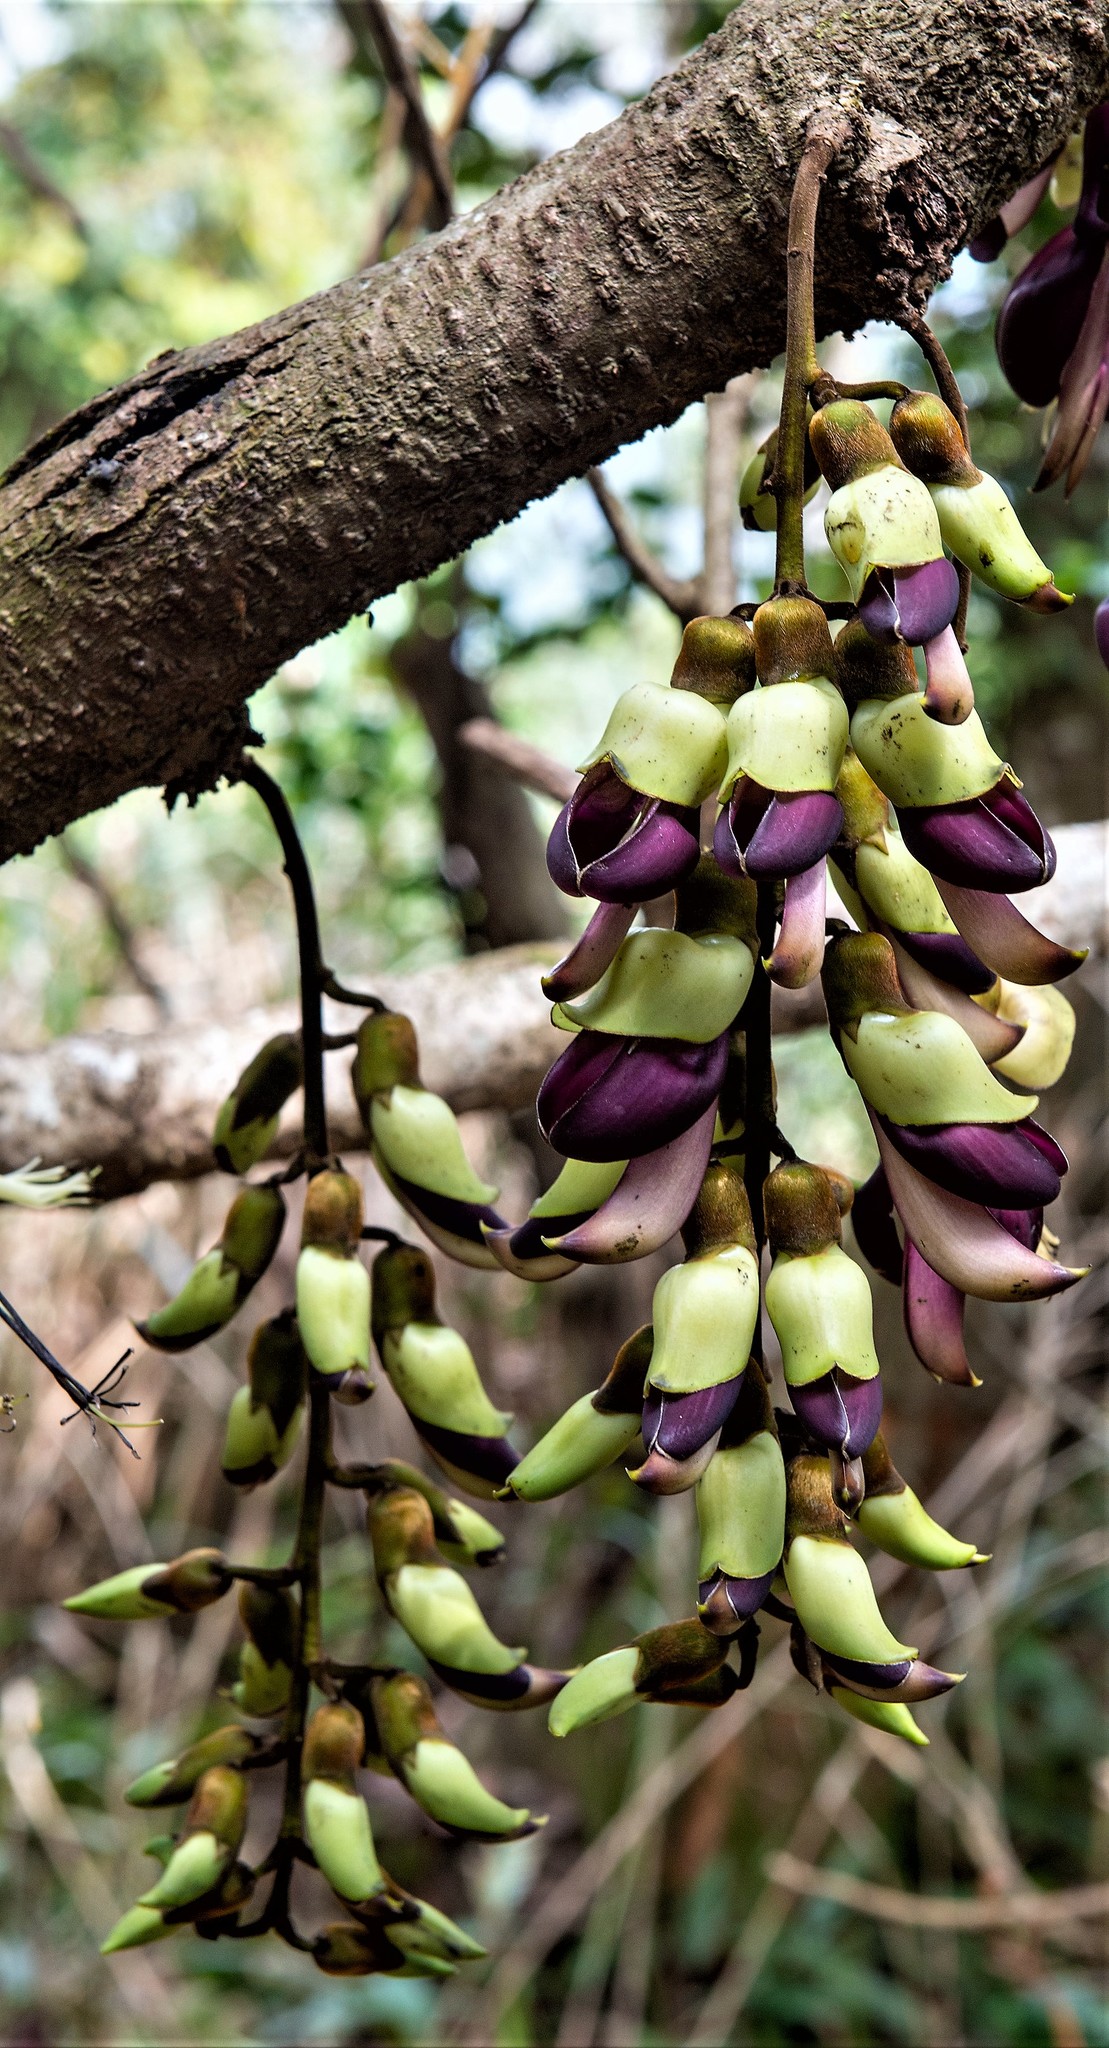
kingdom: Plantae
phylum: Tracheophyta
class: Magnoliopsida
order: Fabales
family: Fabaceae
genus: Mucuna
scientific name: Mucuna macrocarpa
